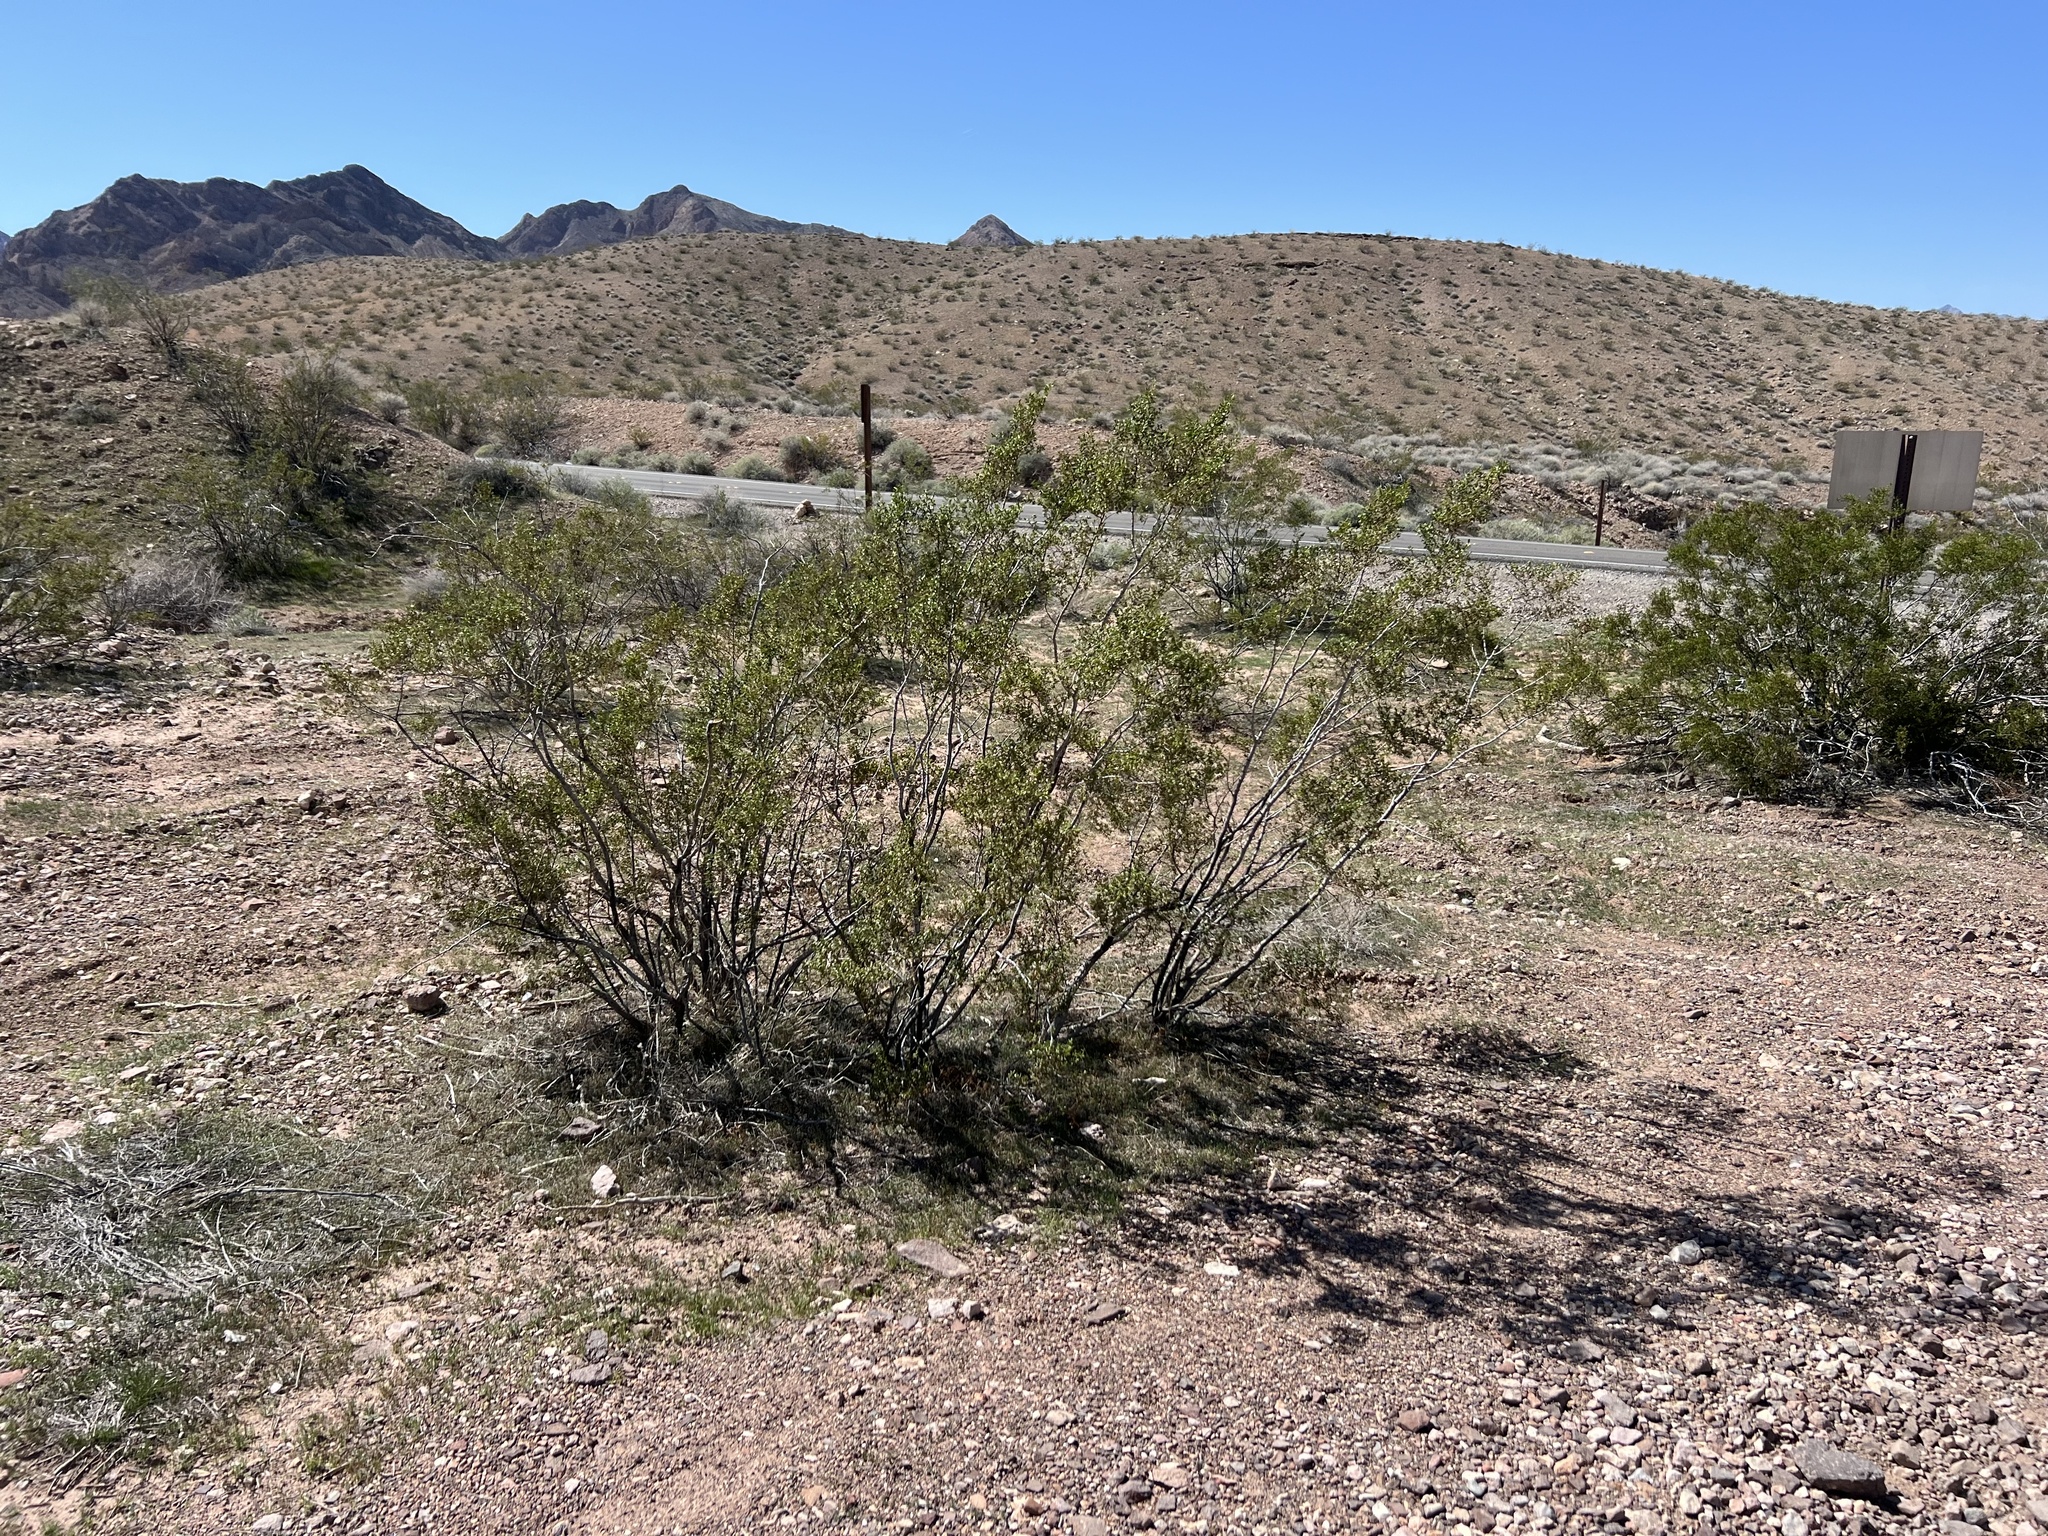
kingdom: Plantae
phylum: Tracheophyta
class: Magnoliopsida
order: Zygophyllales
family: Zygophyllaceae
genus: Larrea
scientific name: Larrea tridentata
